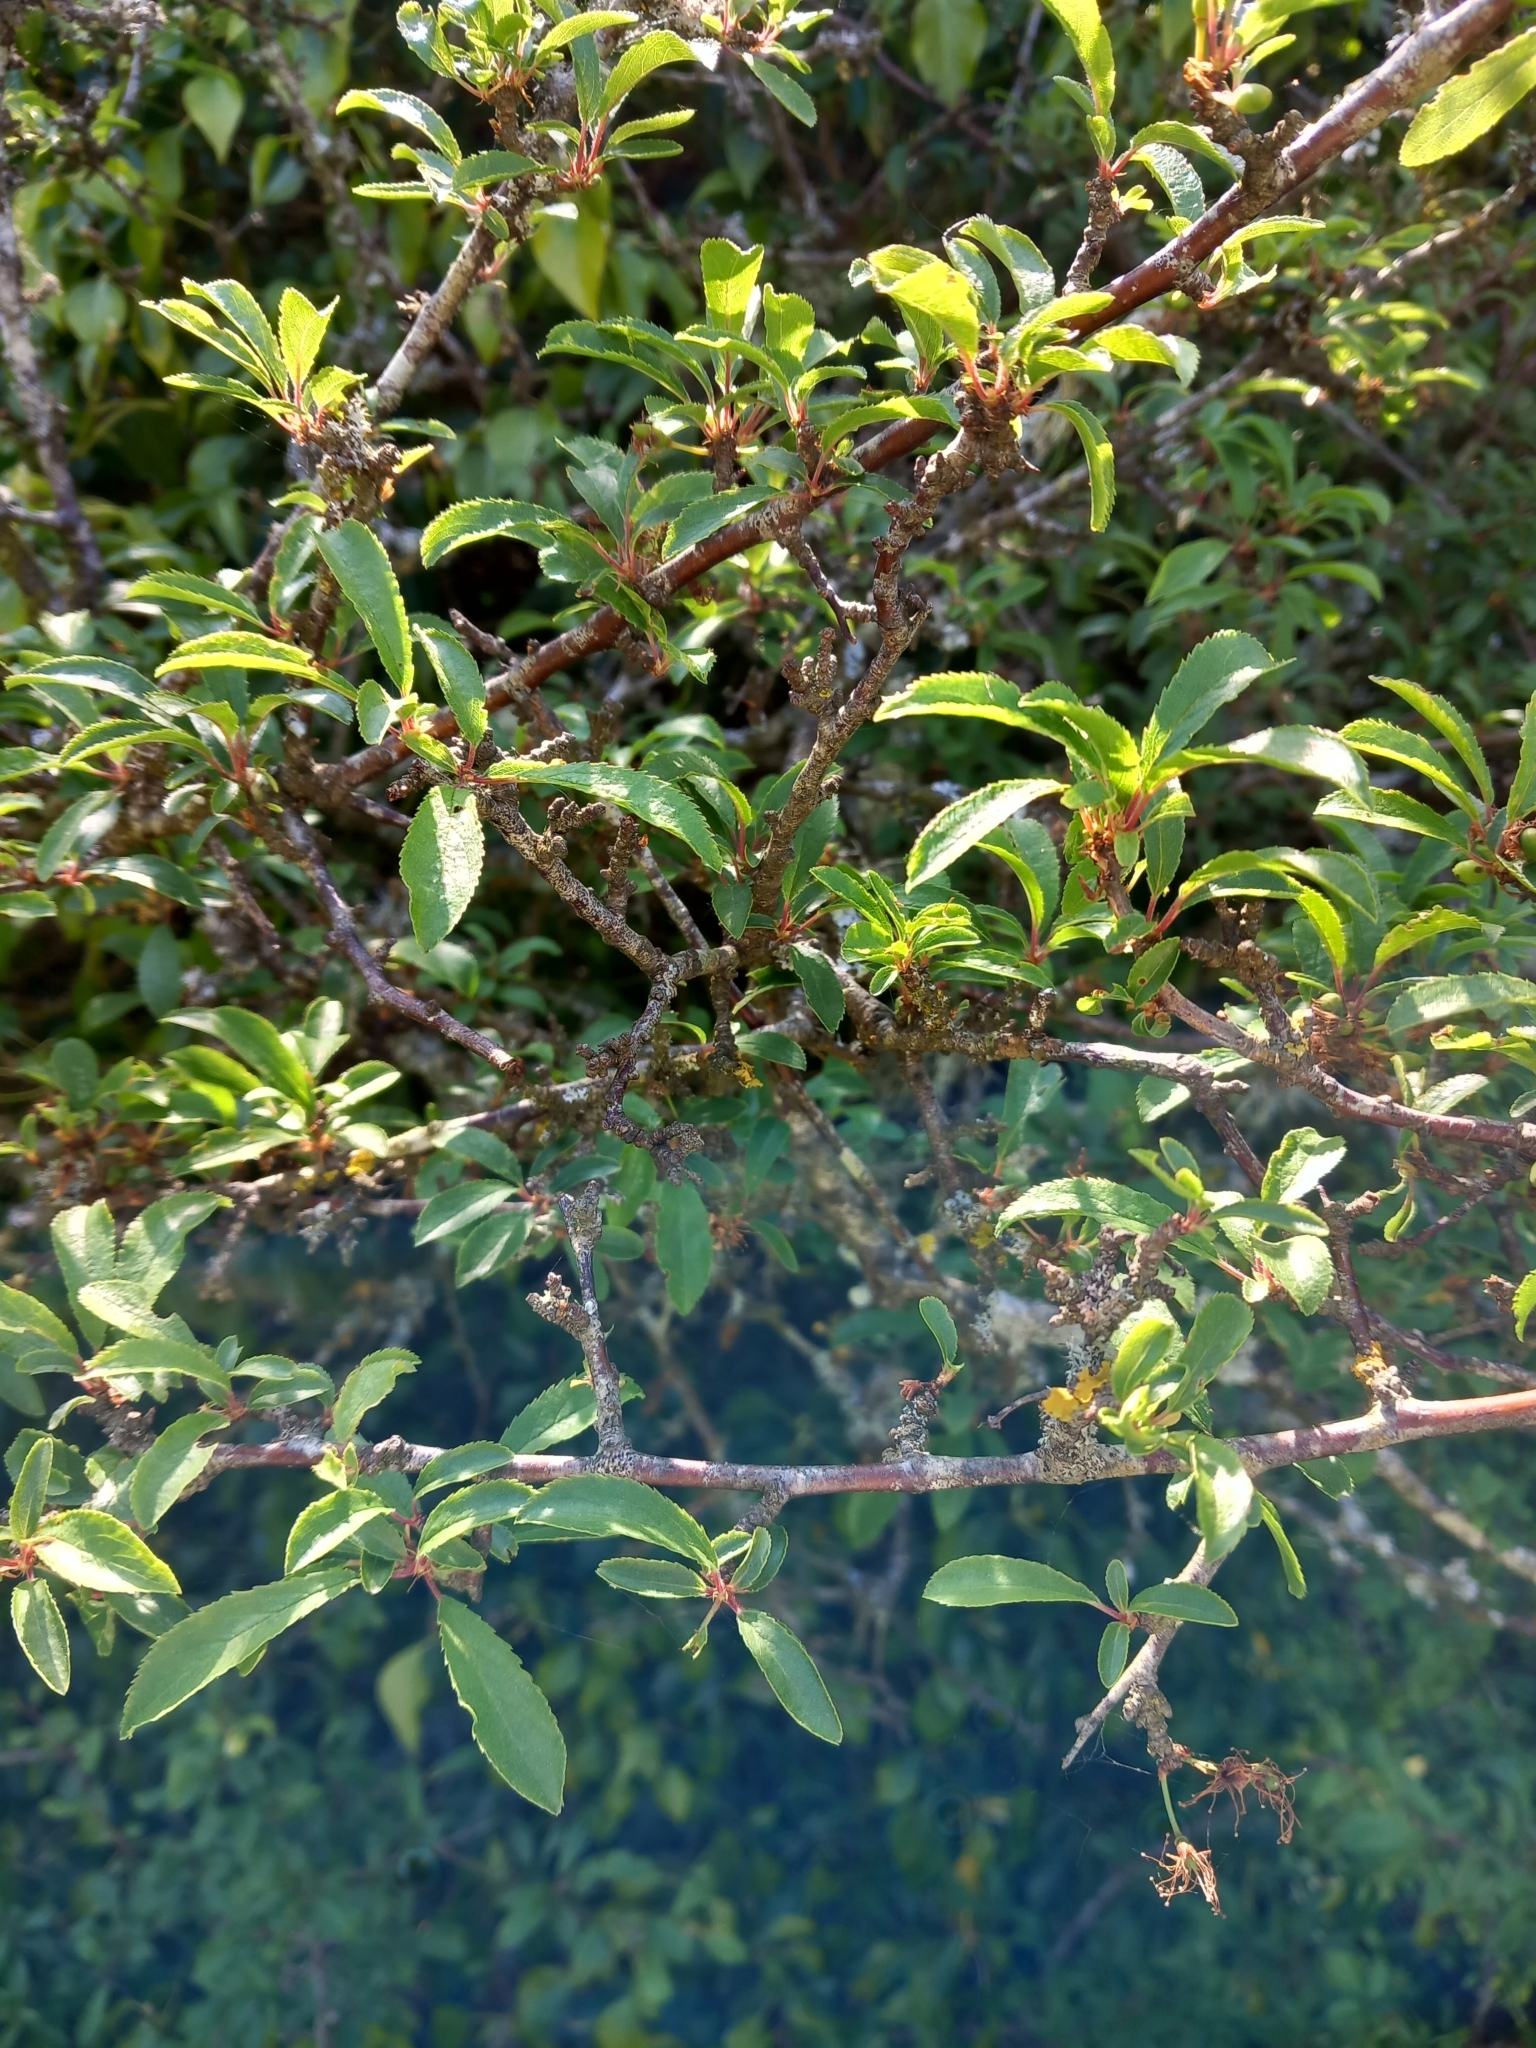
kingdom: Plantae
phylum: Tracheophyta
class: Magnoliopsida
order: Rosales
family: Rosaceae
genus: Prunus
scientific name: Prunus spinosa
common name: Blackthorn
